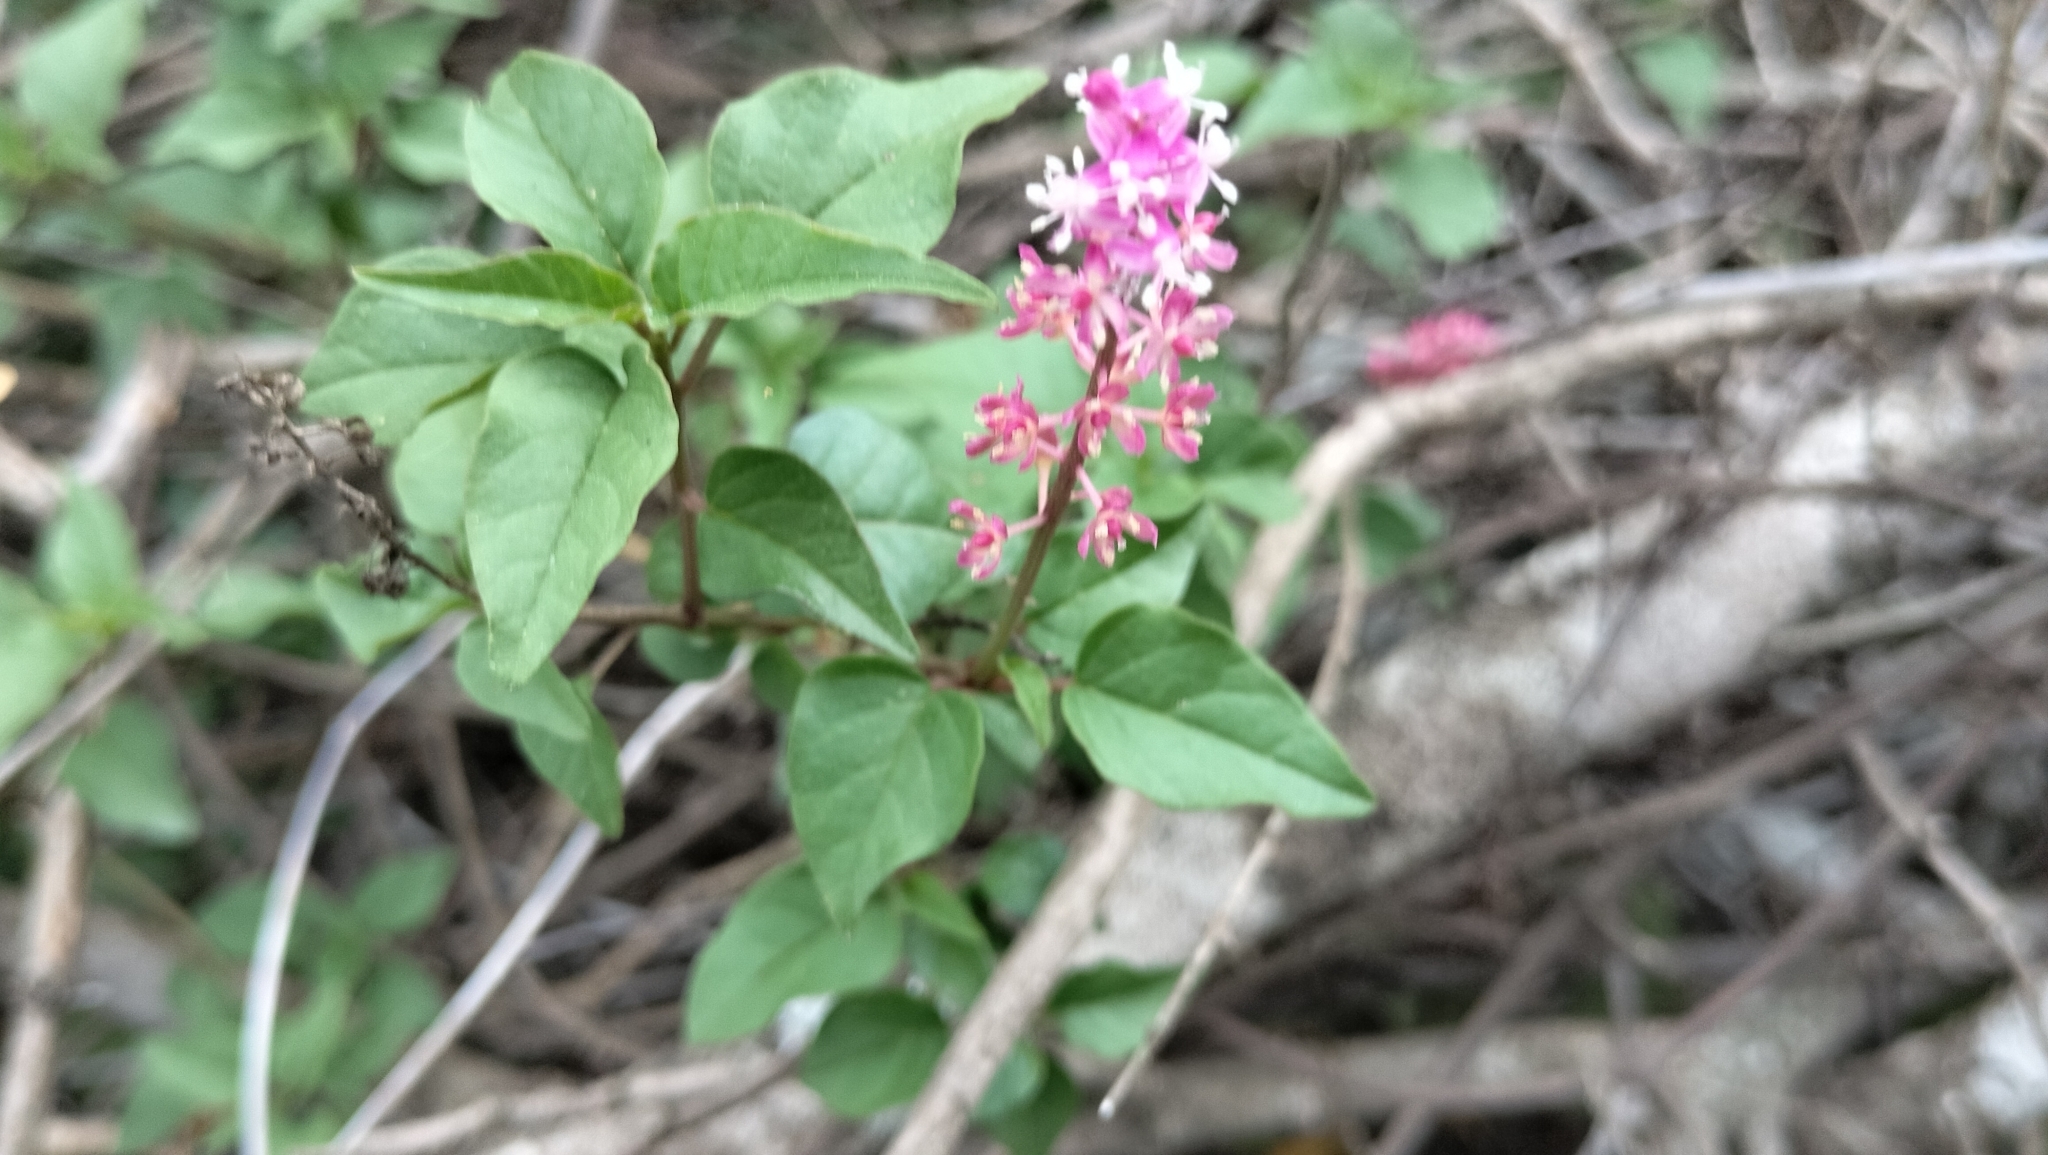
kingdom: Plantae
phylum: Tracheophyta
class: Magnoliopsida
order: Caryophyllales
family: Phytolaccaceae
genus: Rivina
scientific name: Rivina humilis
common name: Rougeplant
